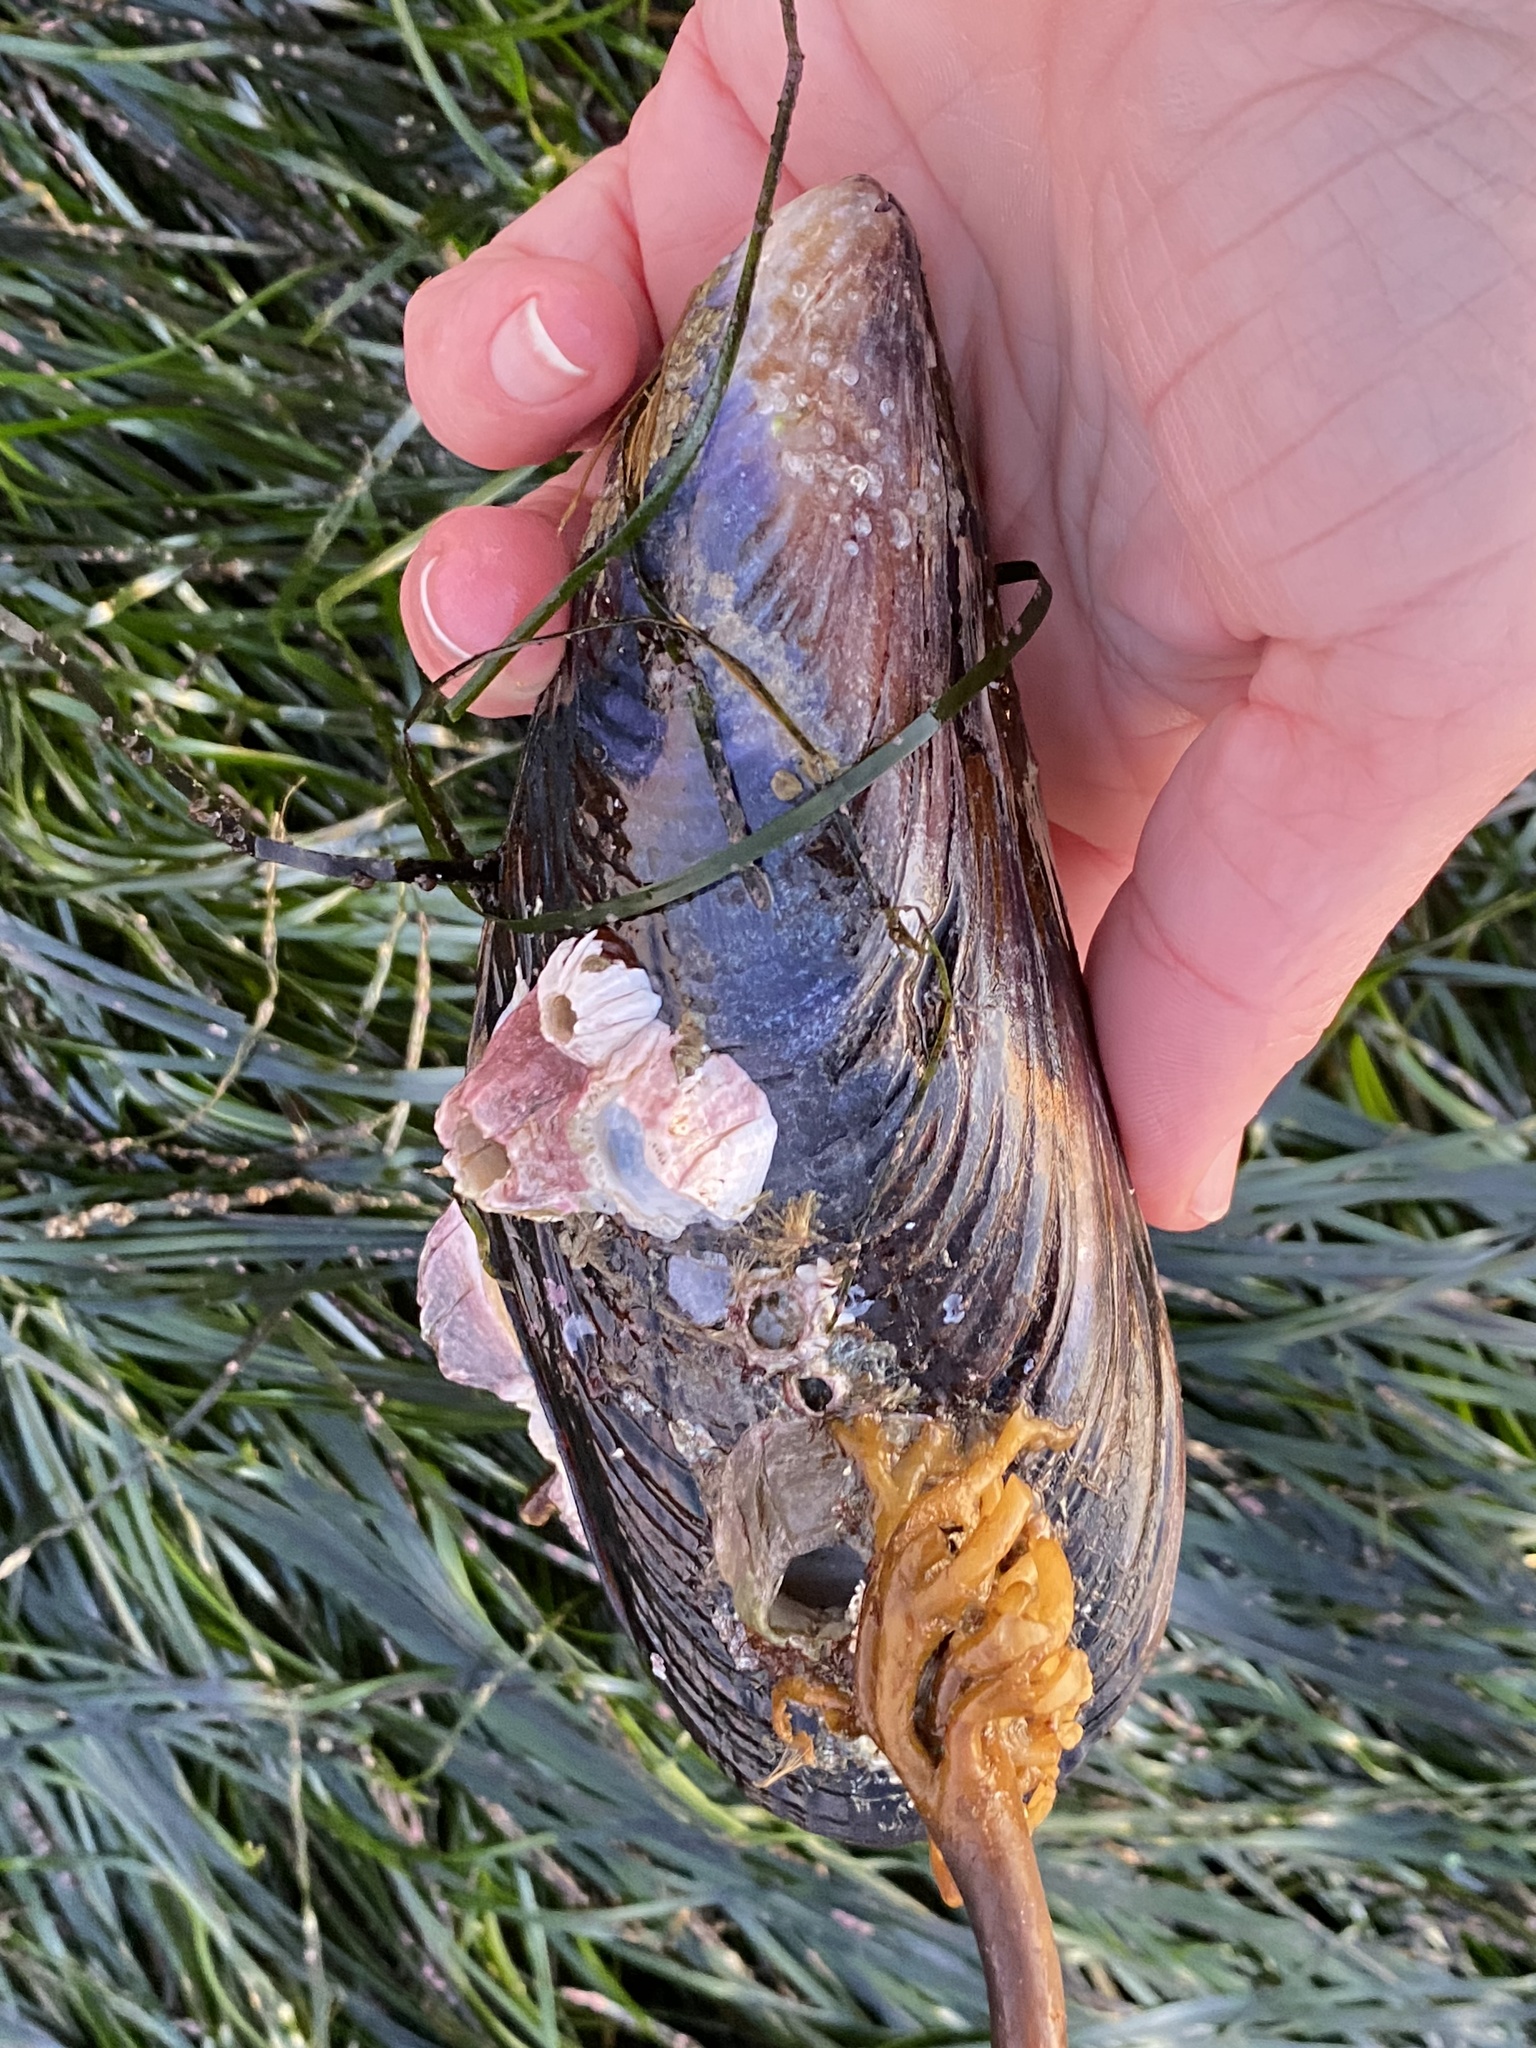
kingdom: Animalia
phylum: Mollusca
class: Bivalvia
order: Mytilida
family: Mytilidae
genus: Mytilus
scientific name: Mytilus californianus
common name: California mussel
